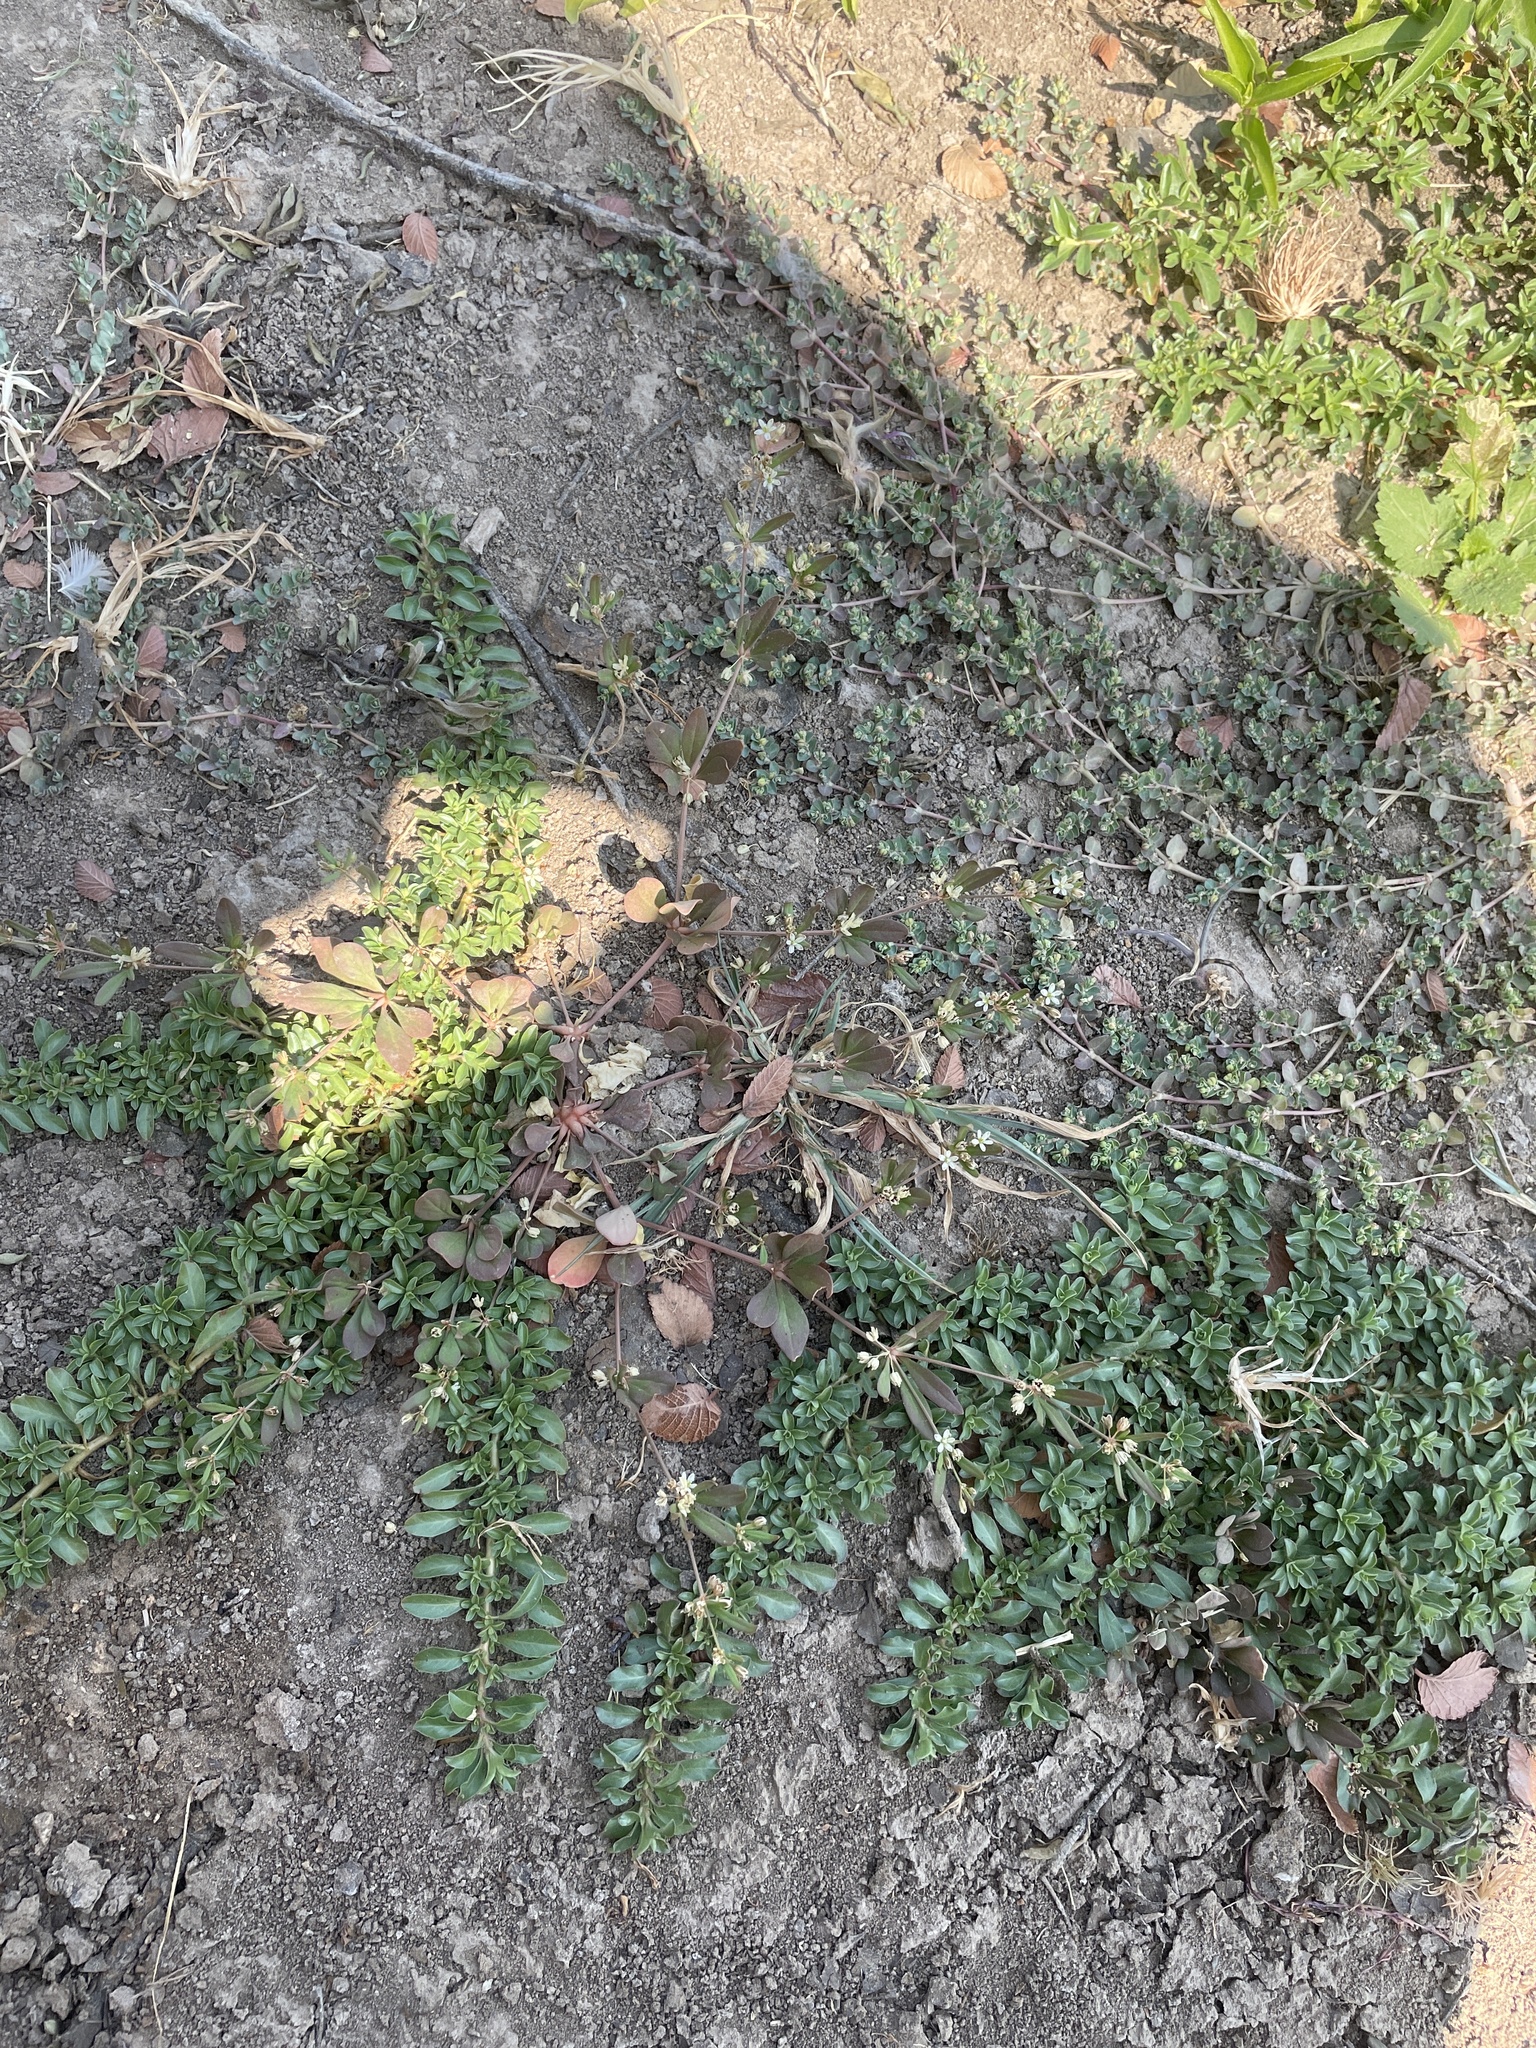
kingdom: Plantae
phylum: Tracheophyta
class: Magnoliopsida
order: Caryophyllales
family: Molluginaceae
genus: Mollugo
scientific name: Mollugo verticillata
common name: Green carpetweed
